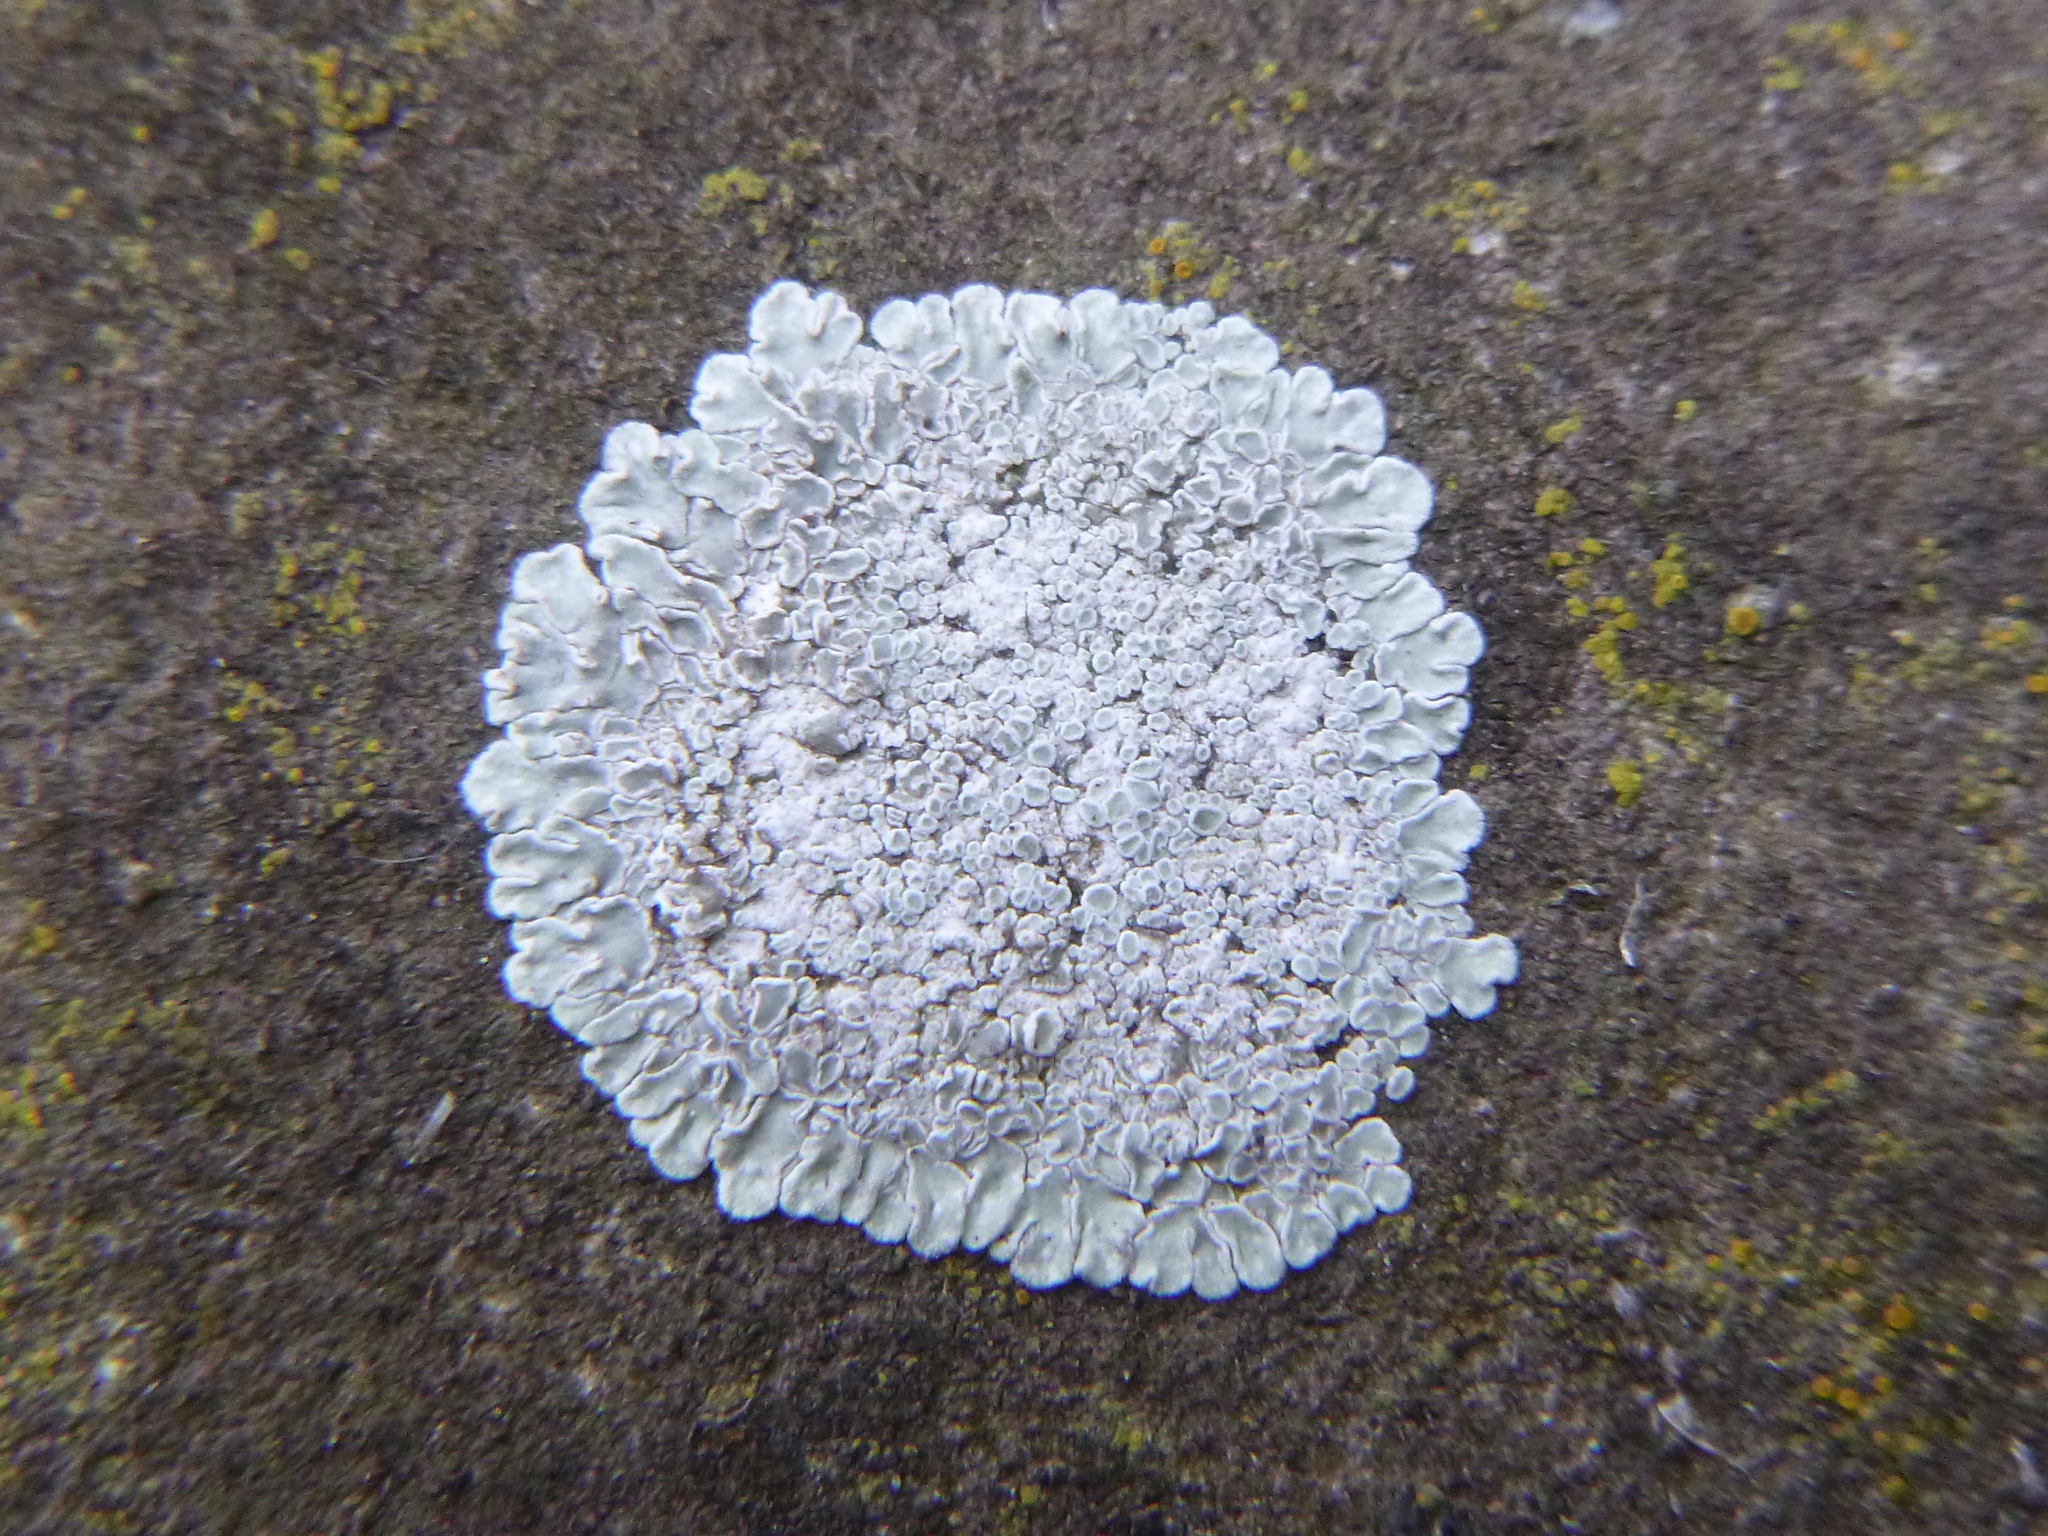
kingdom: Fungi
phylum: Ascomycota
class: Lecanoromycetes
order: Lecanorales
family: Lecanoraceae
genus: Protoparmeliopsis
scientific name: Protoparmeliopsis muralis
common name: Stonewall rim lichen
